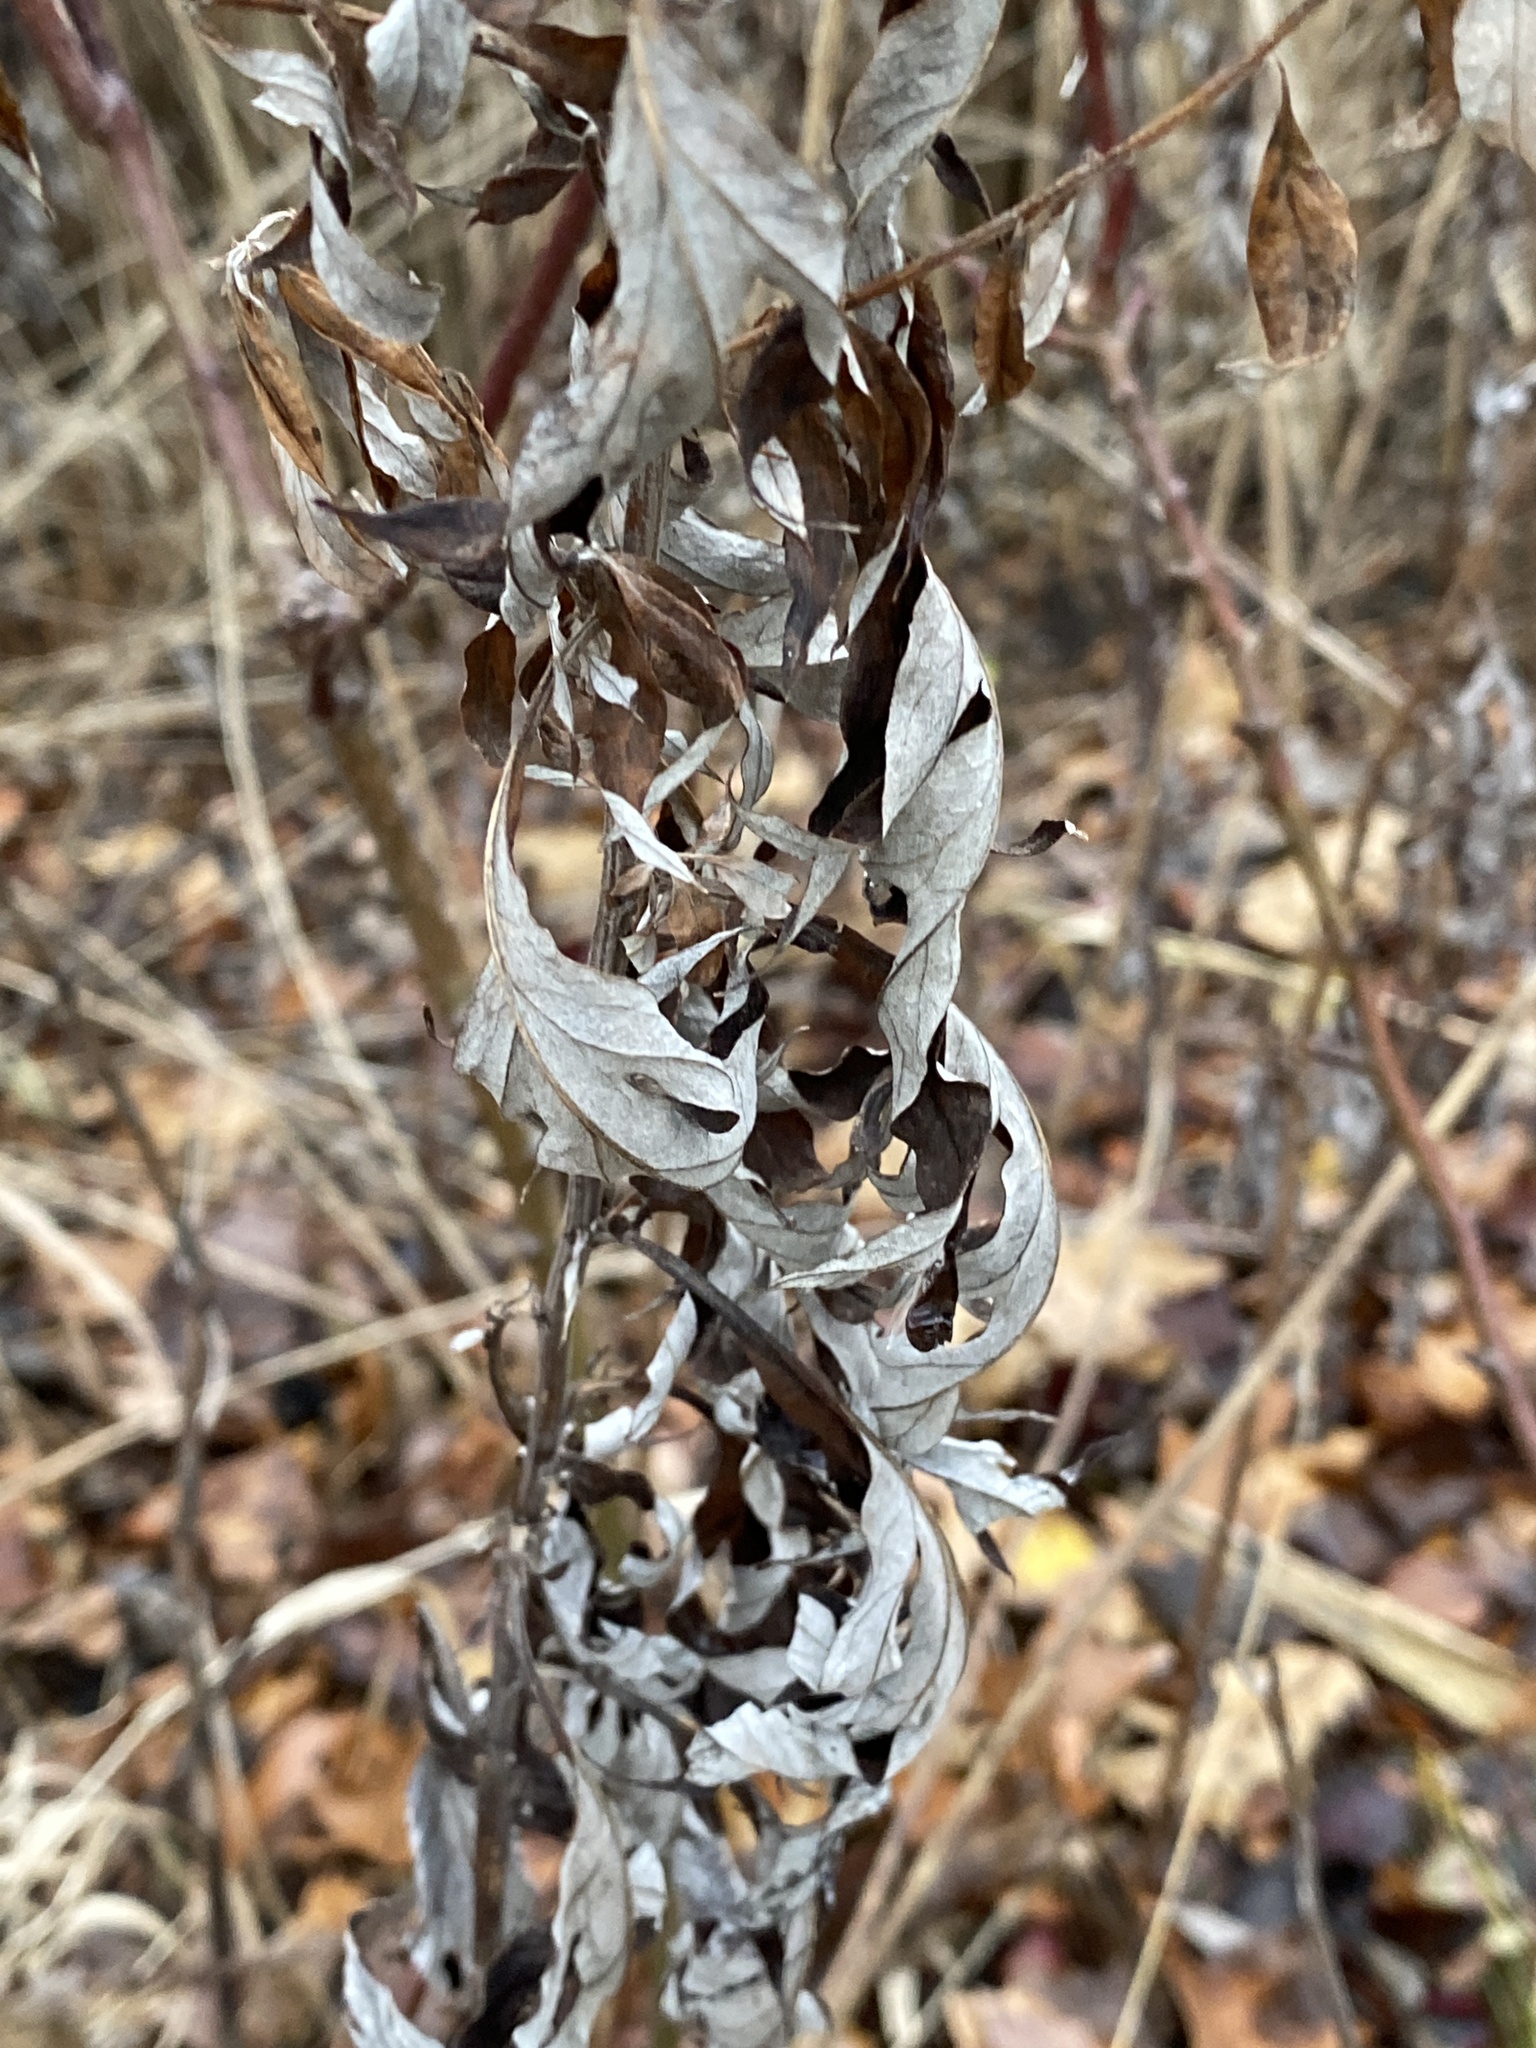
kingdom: Plantae
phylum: Tracheophyta
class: Magnoliopsida
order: Asterales
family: Asteraceae
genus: Artemisia
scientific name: Artemisia vulgaris
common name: Mugwort
